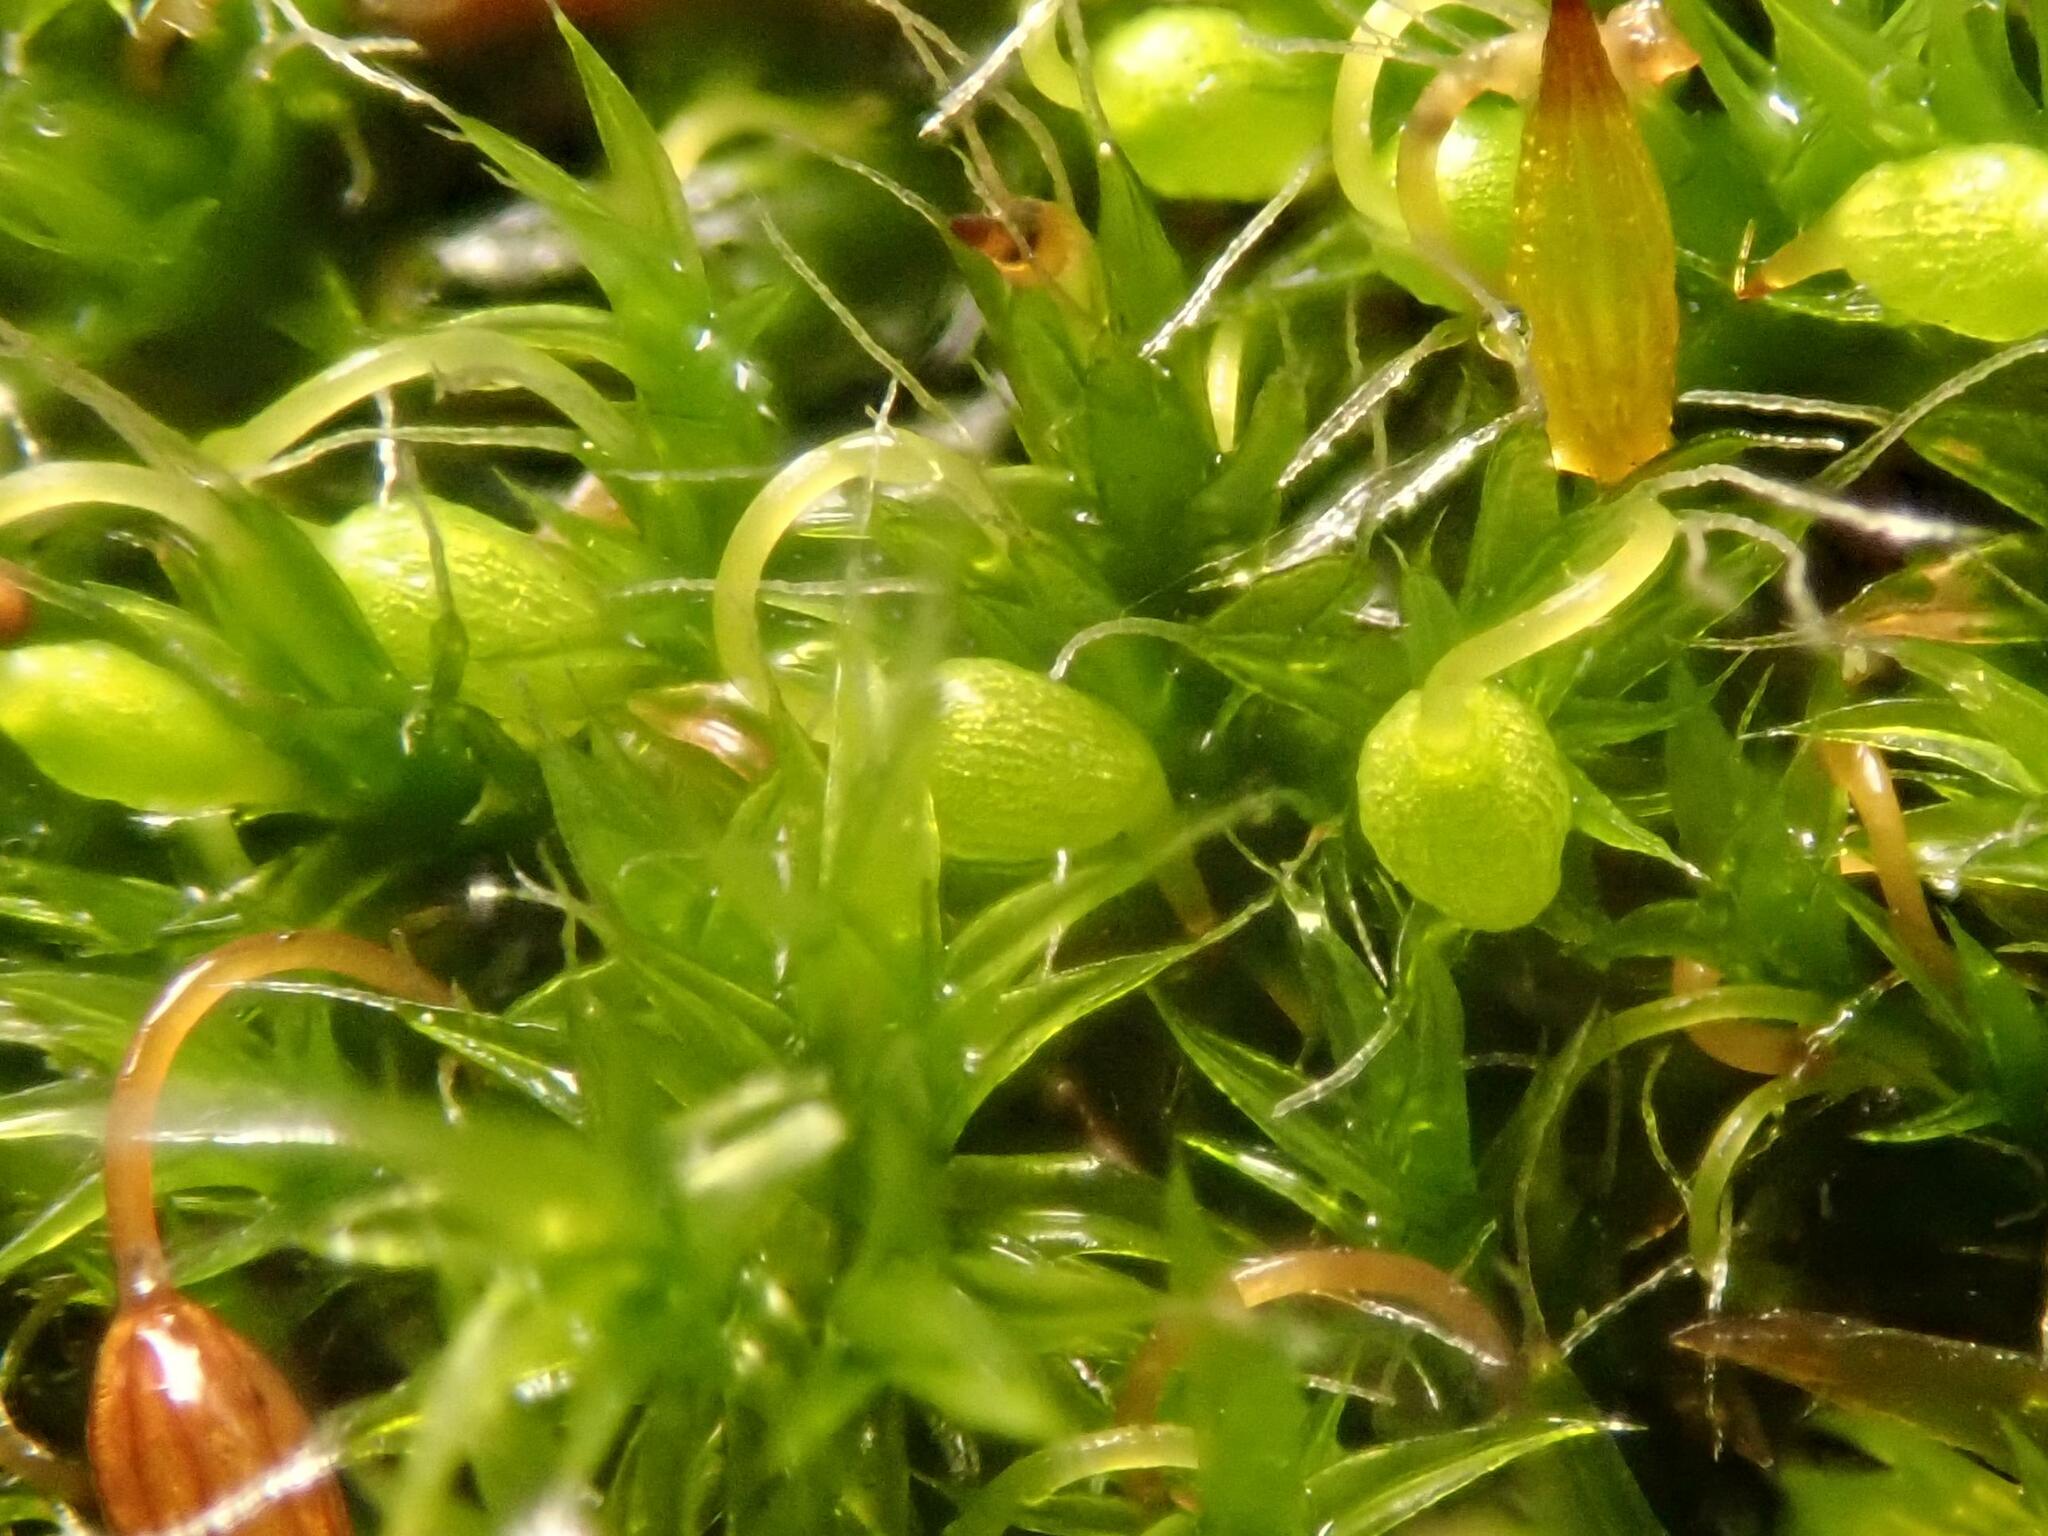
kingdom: Plantae
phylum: Bryophyta
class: Bryopsida
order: Grimmiales
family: Grimmiaceae
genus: Grimmia
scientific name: Grimmia pulvinata
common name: Grey-cushioned grimmia
